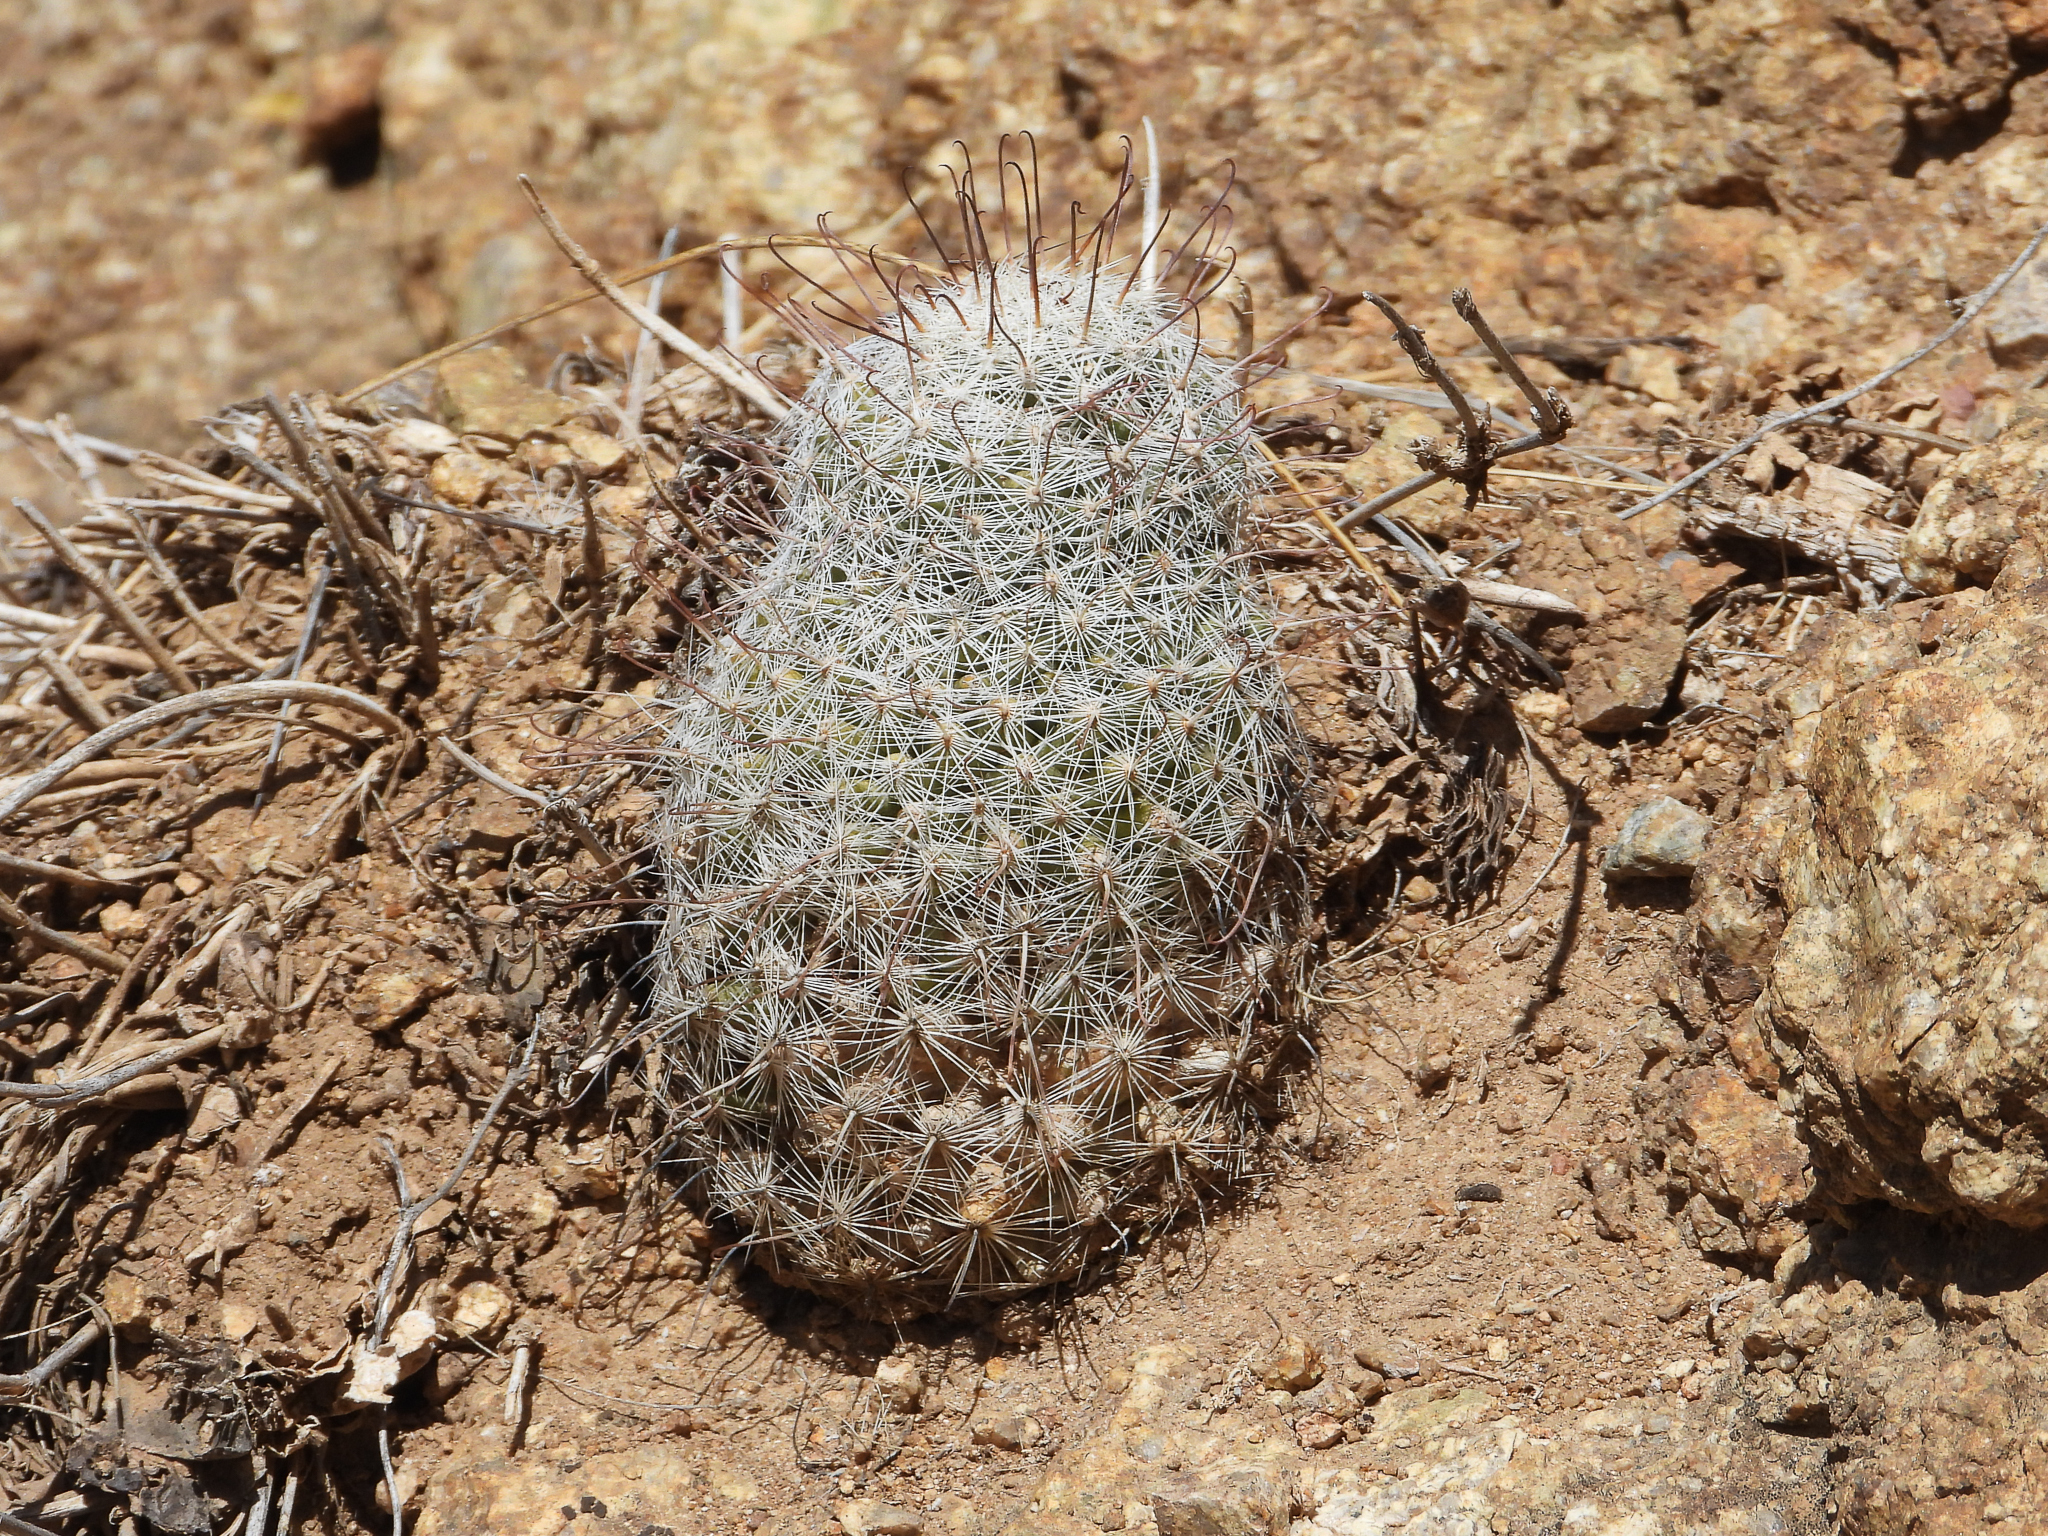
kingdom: Plantae
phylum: Tracheophyta
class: Magnoliopsida
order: Caryophyllales
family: Cactaceae
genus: Cochemiea
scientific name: Cochemiea grahamii
